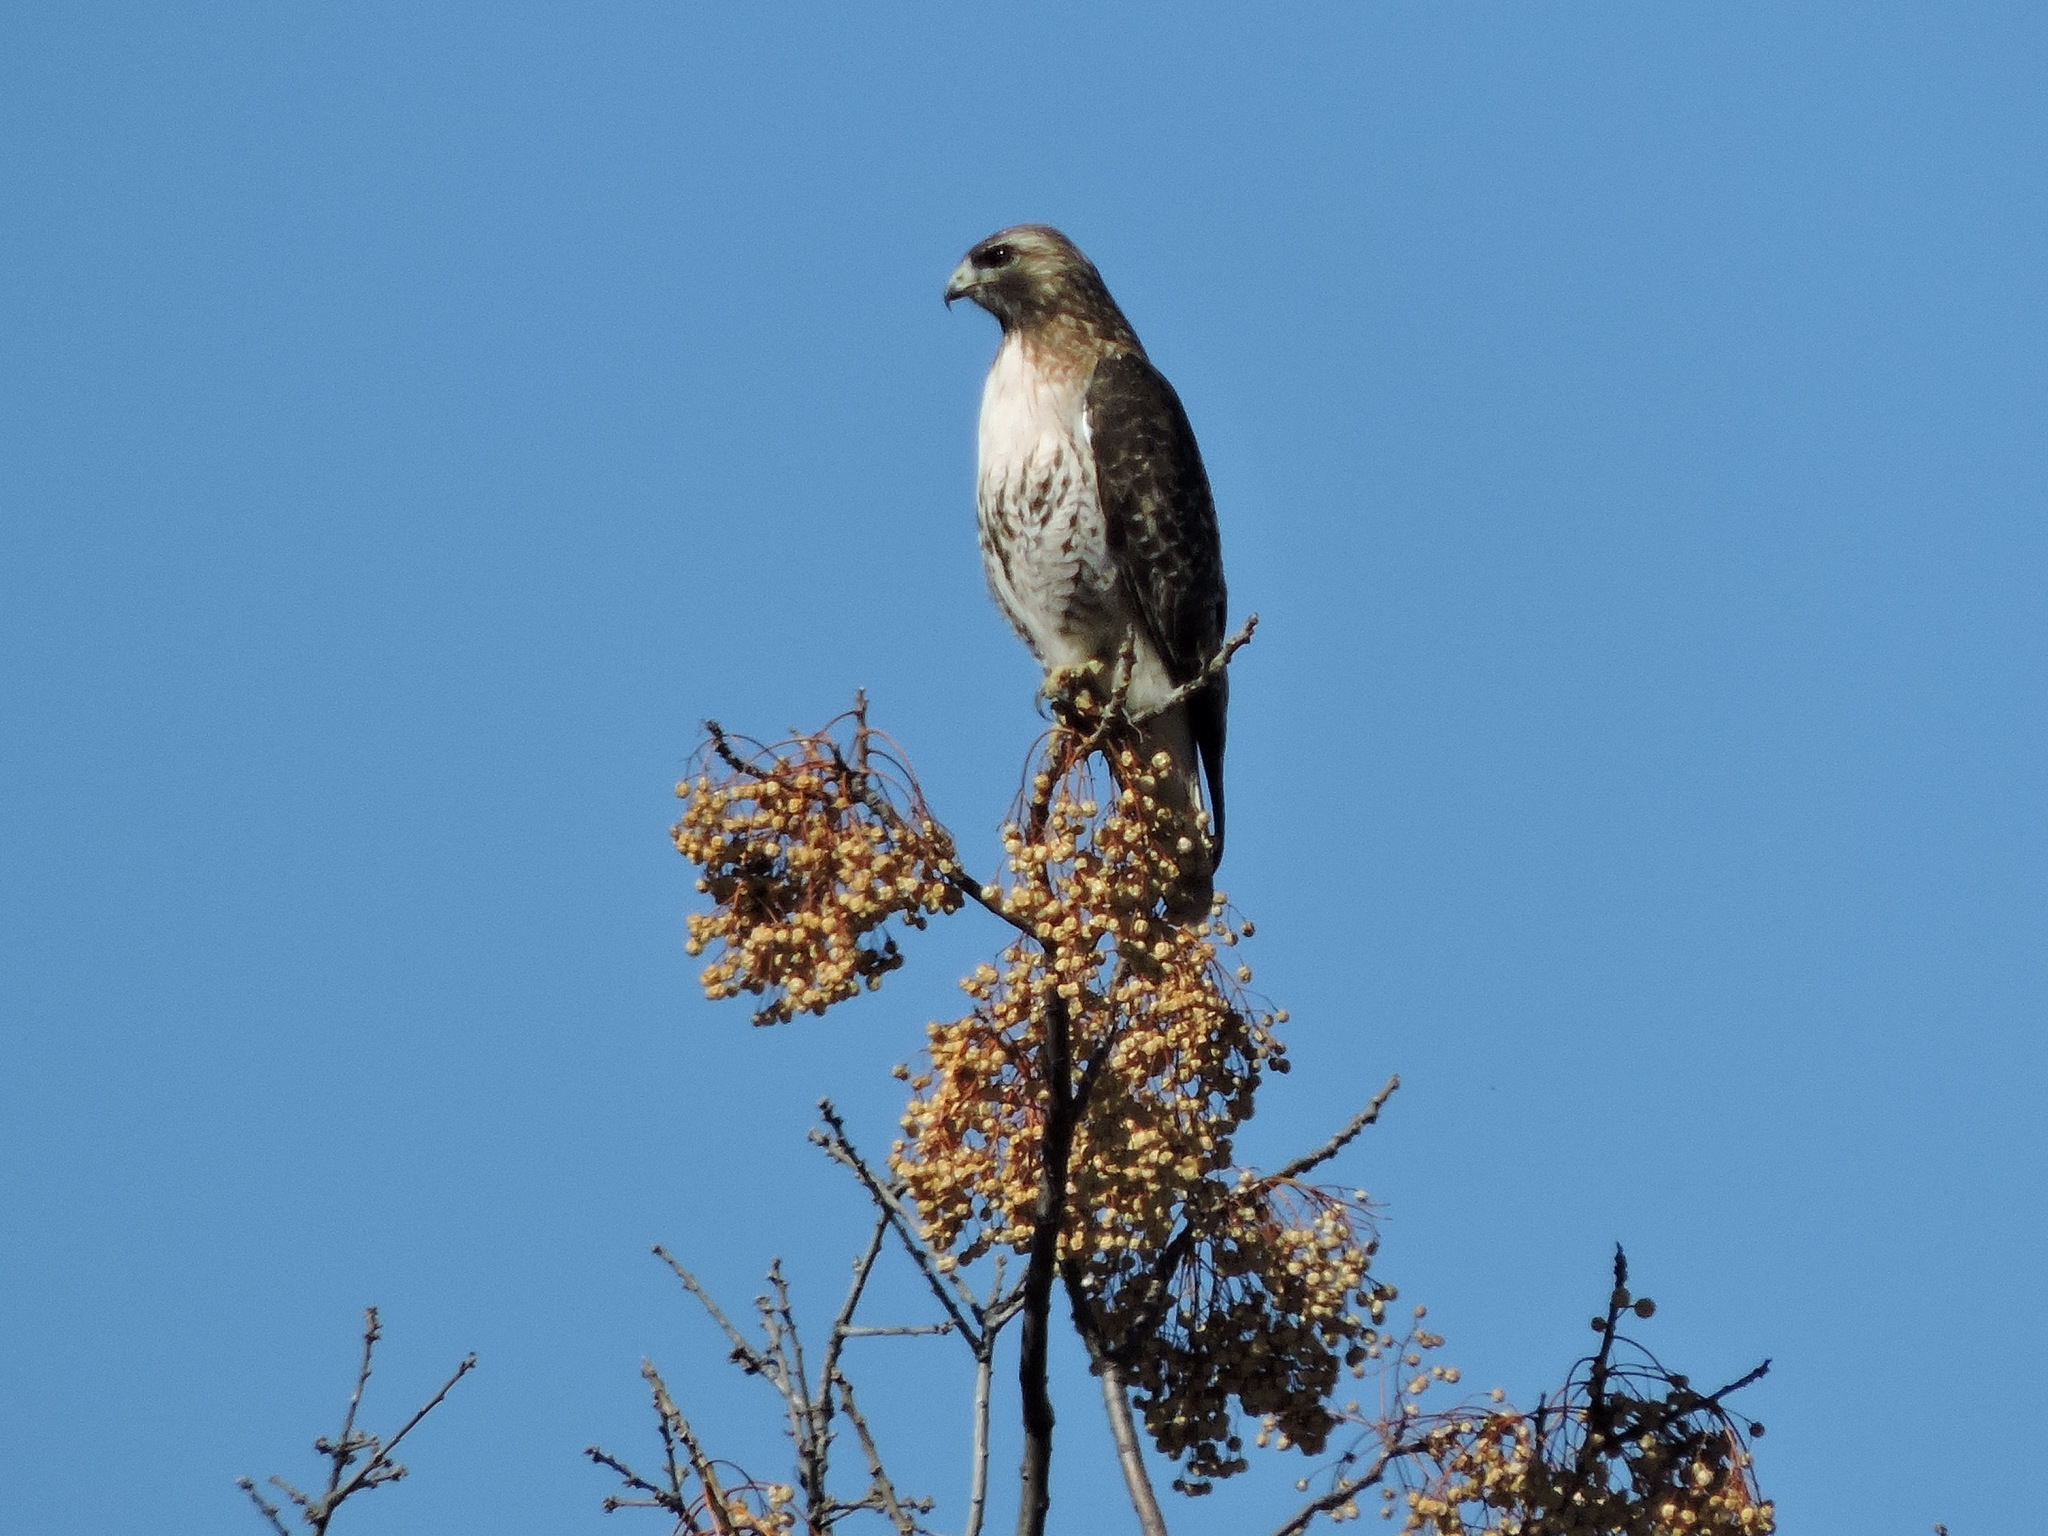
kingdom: Animalia
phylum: Chordata
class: Aves
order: Accipitriformes
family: Accipitridae
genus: Buteo
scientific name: Buteo jamaicensis
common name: Red-tailed hawk
